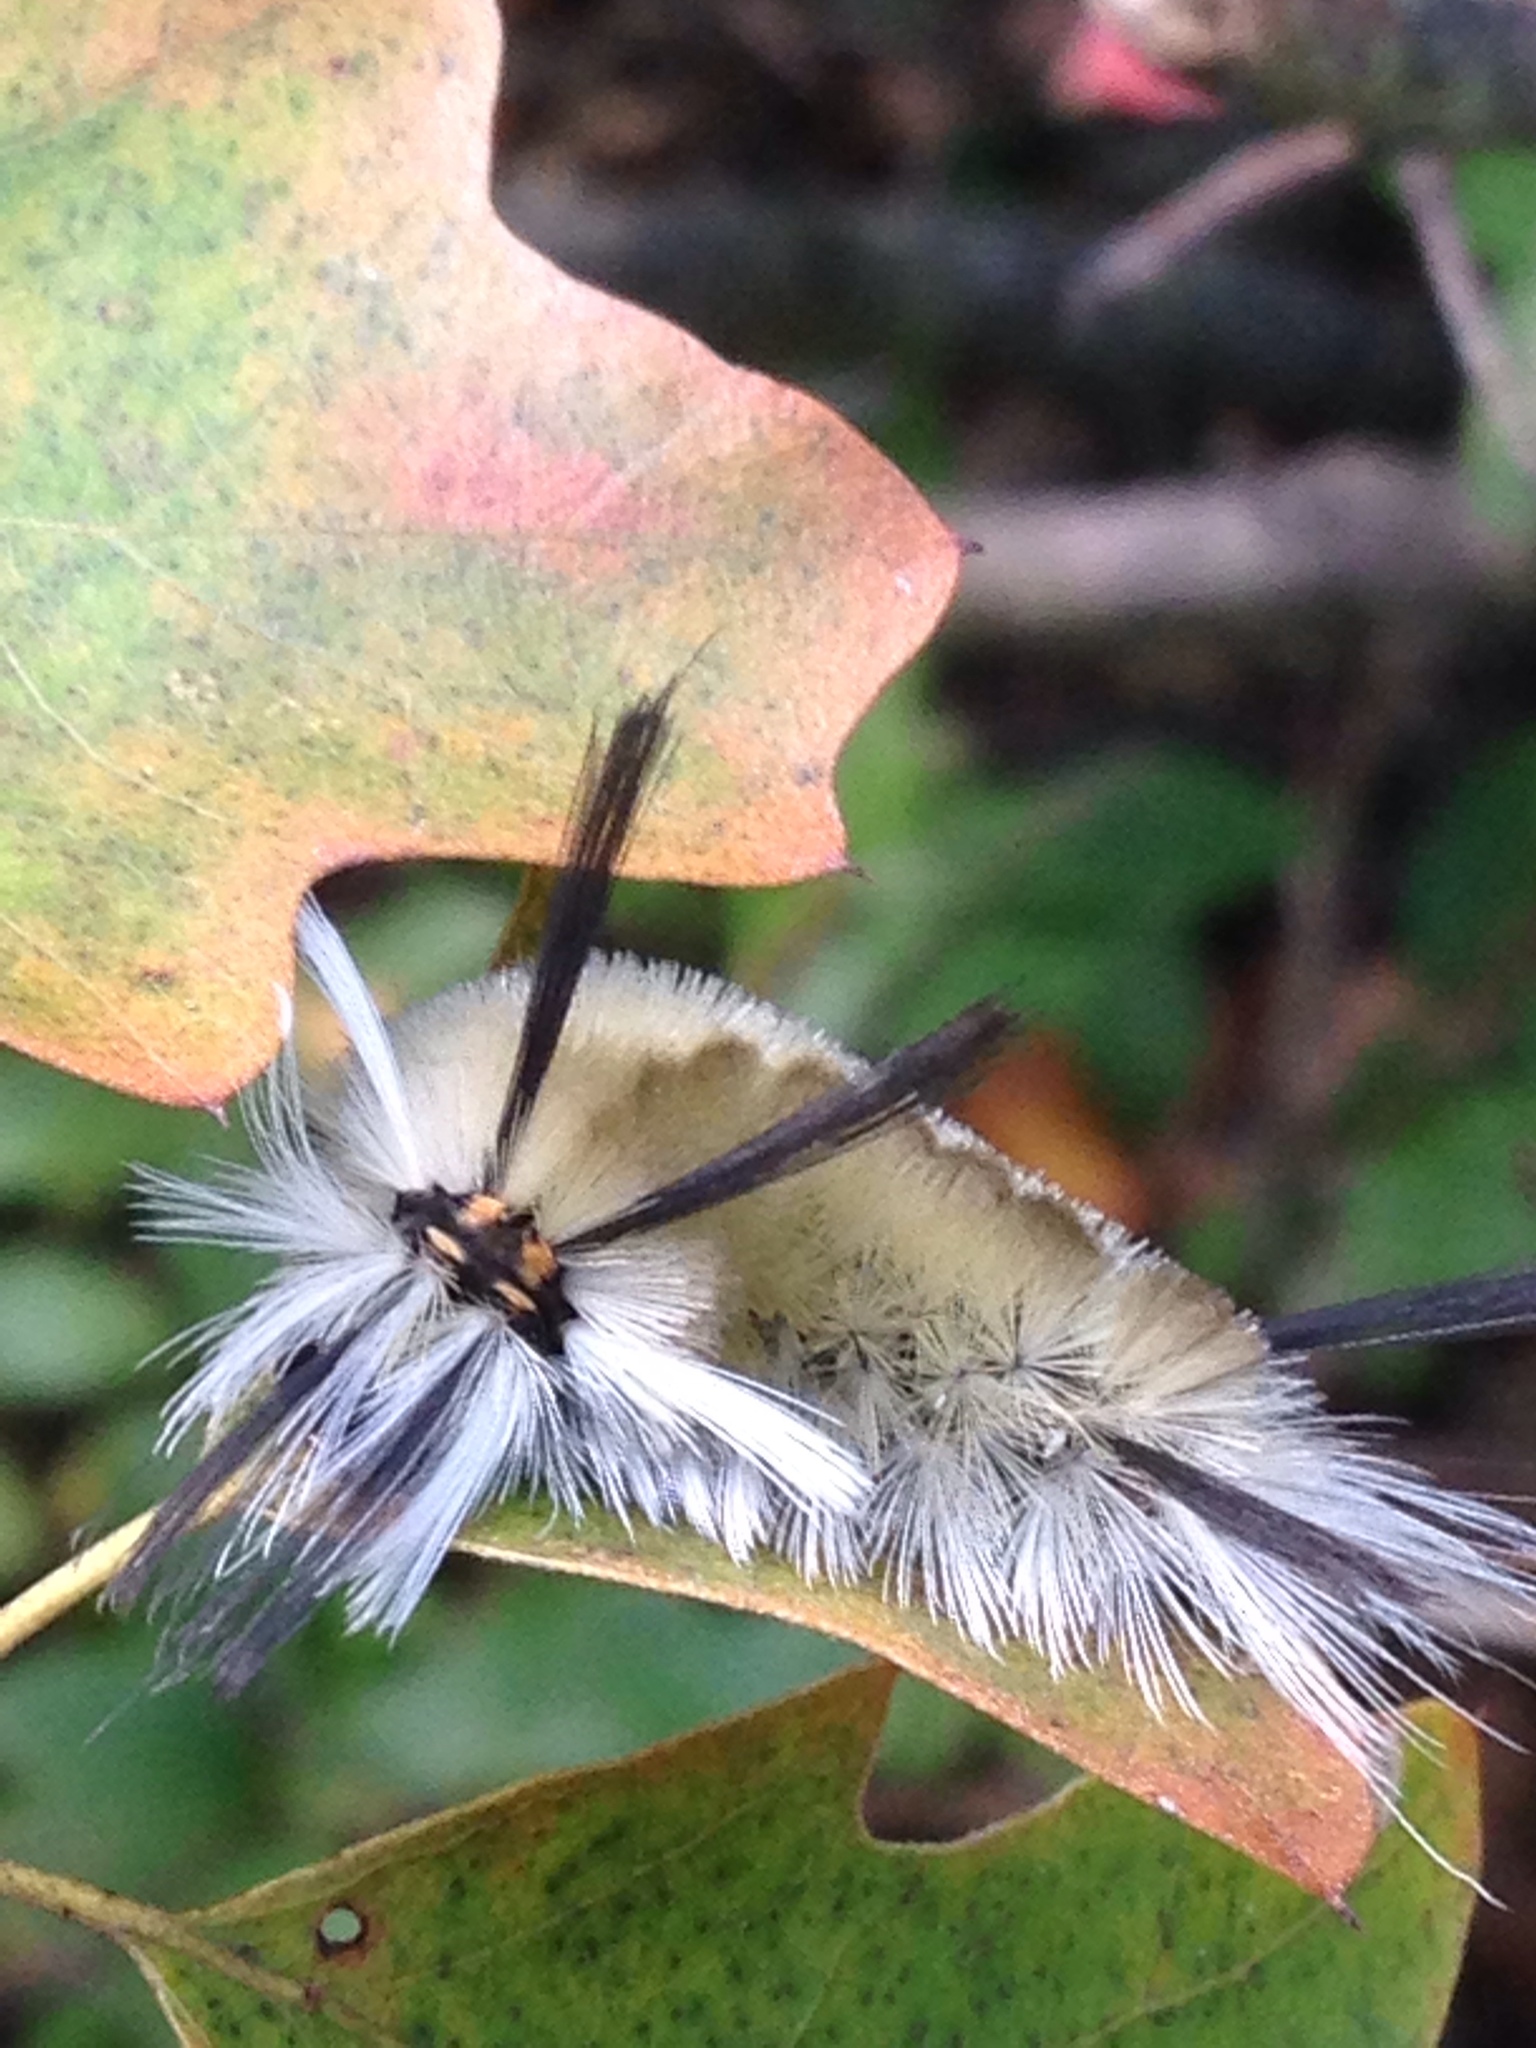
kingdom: Animalia
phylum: Arthropoda
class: Insecta
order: Lepidoptera
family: Erebidae
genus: Halysidota
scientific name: Halysidota tessellaris
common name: Banded tussock moth
